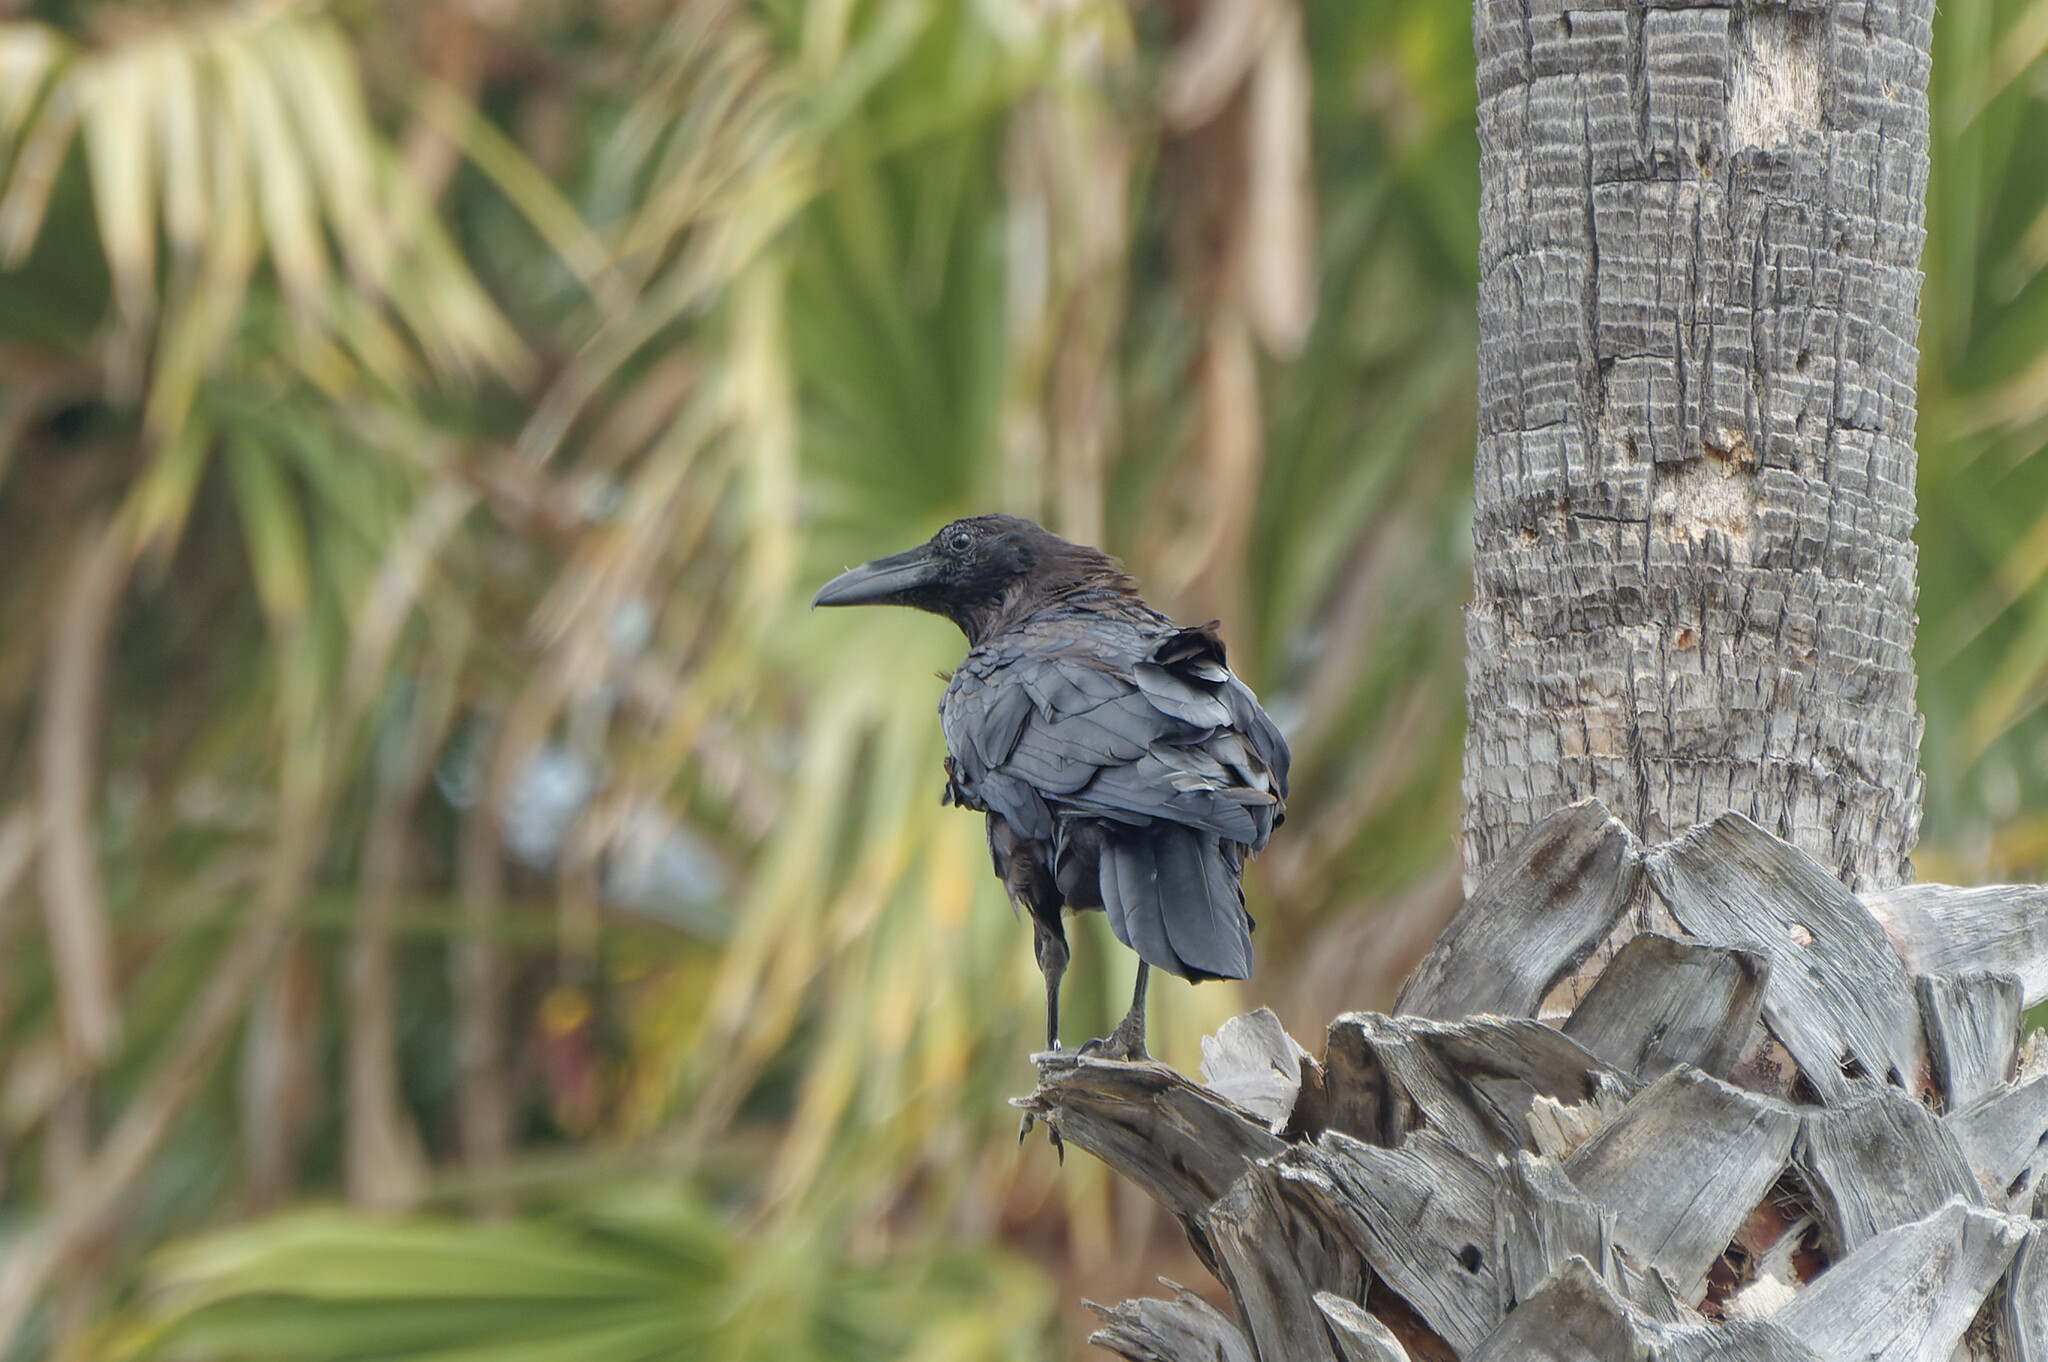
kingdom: Animalia
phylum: Chordata
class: Aves
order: Passeriformes
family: Corvidae
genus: Corvus
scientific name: Corvus corax
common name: Common raven
